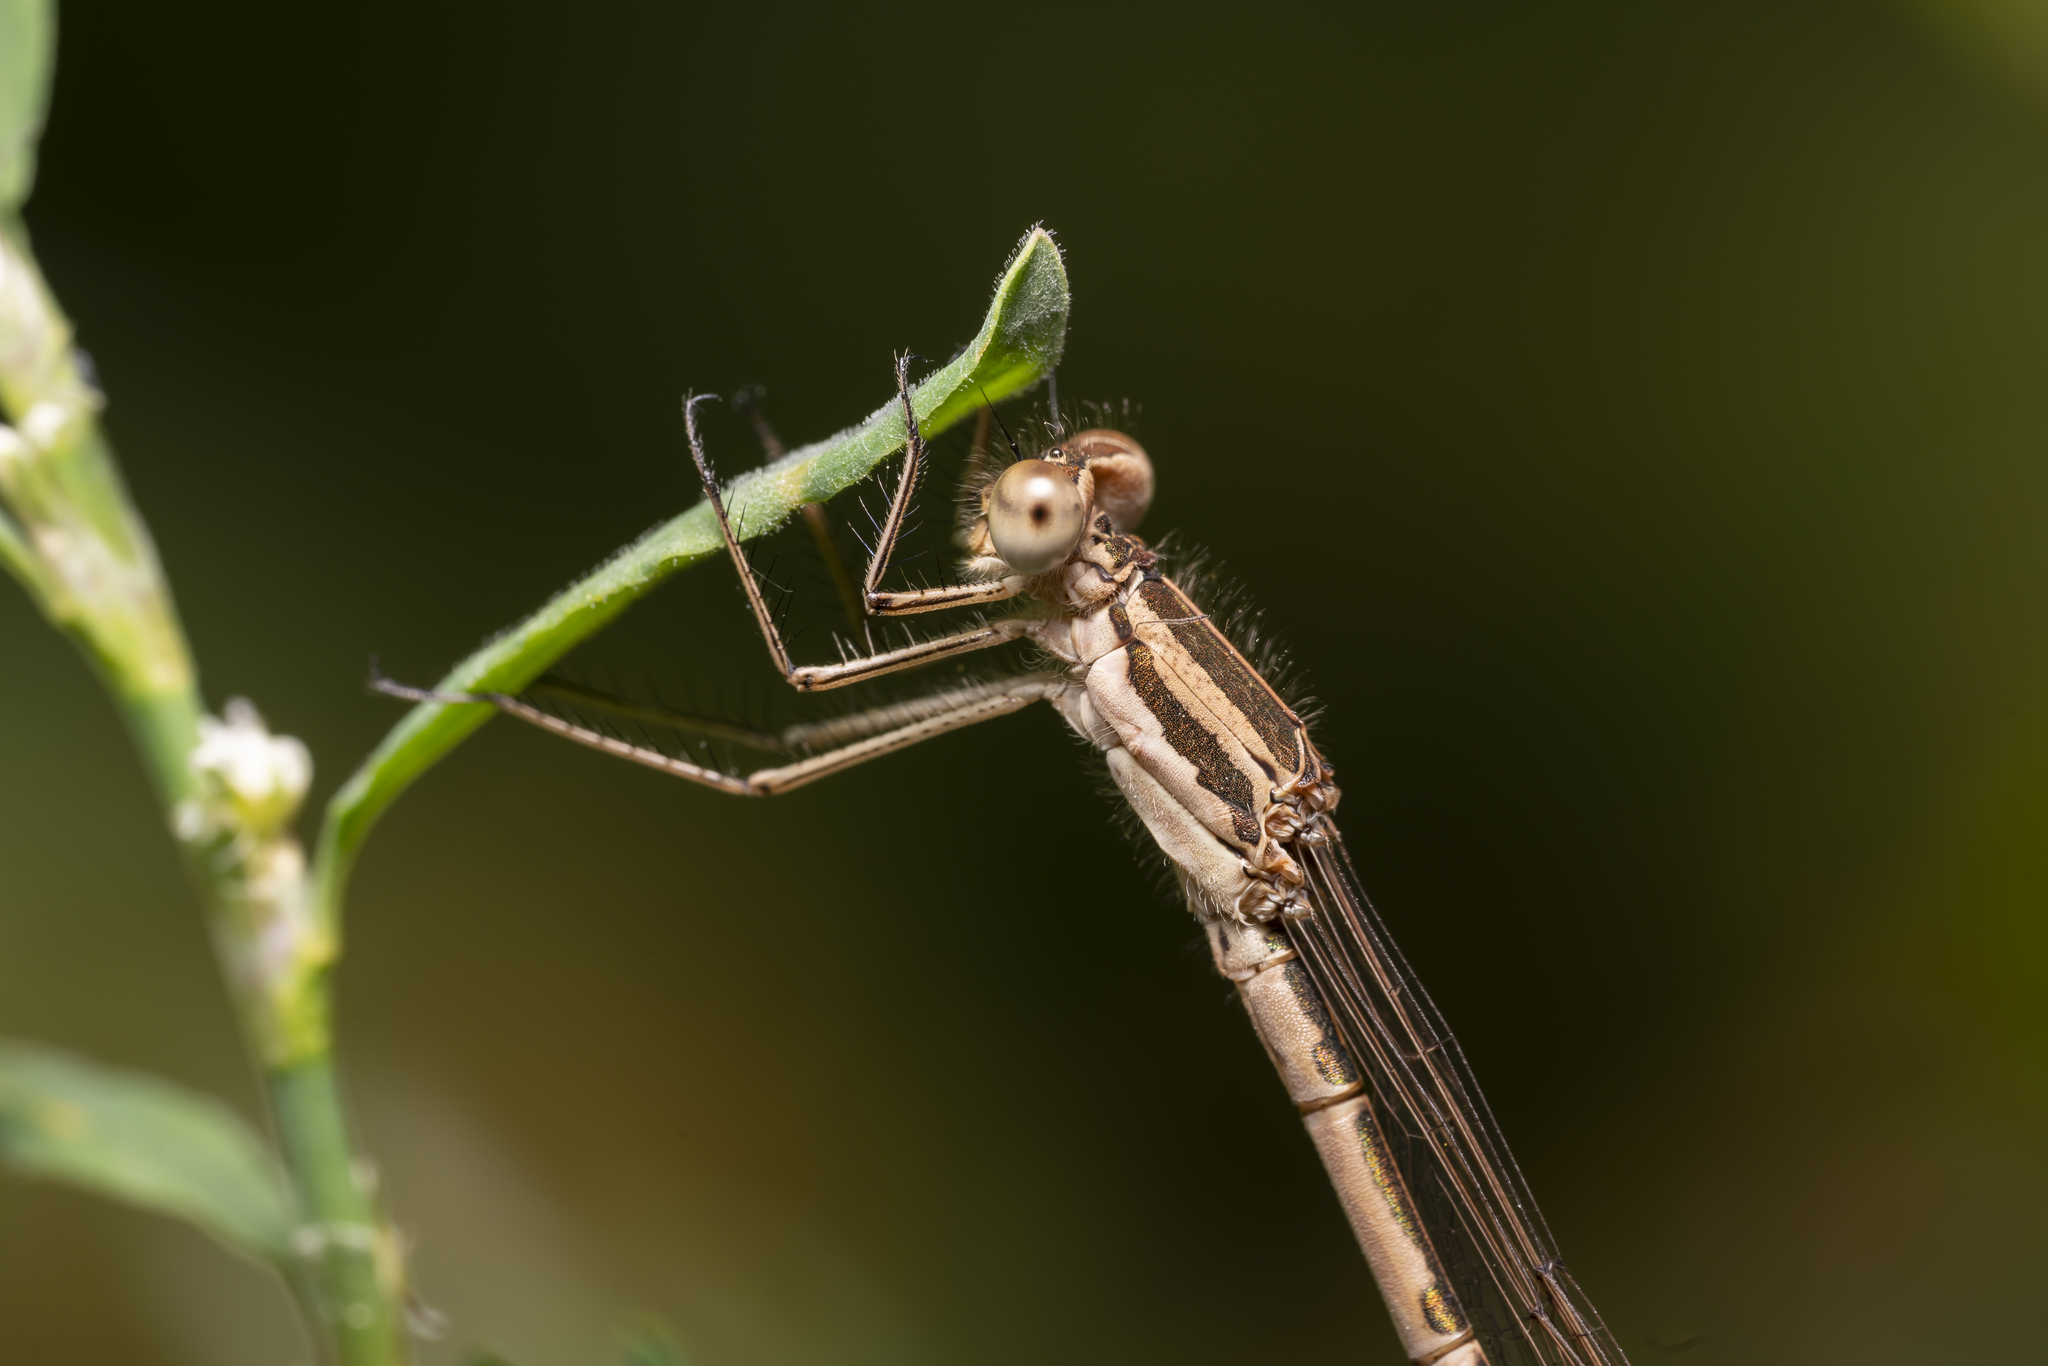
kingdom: Animalia
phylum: Arthropoda
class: Insecta
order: Odonata
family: Lestidae
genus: Sympecma
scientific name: Sympecma fusca
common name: Common winter damsel
